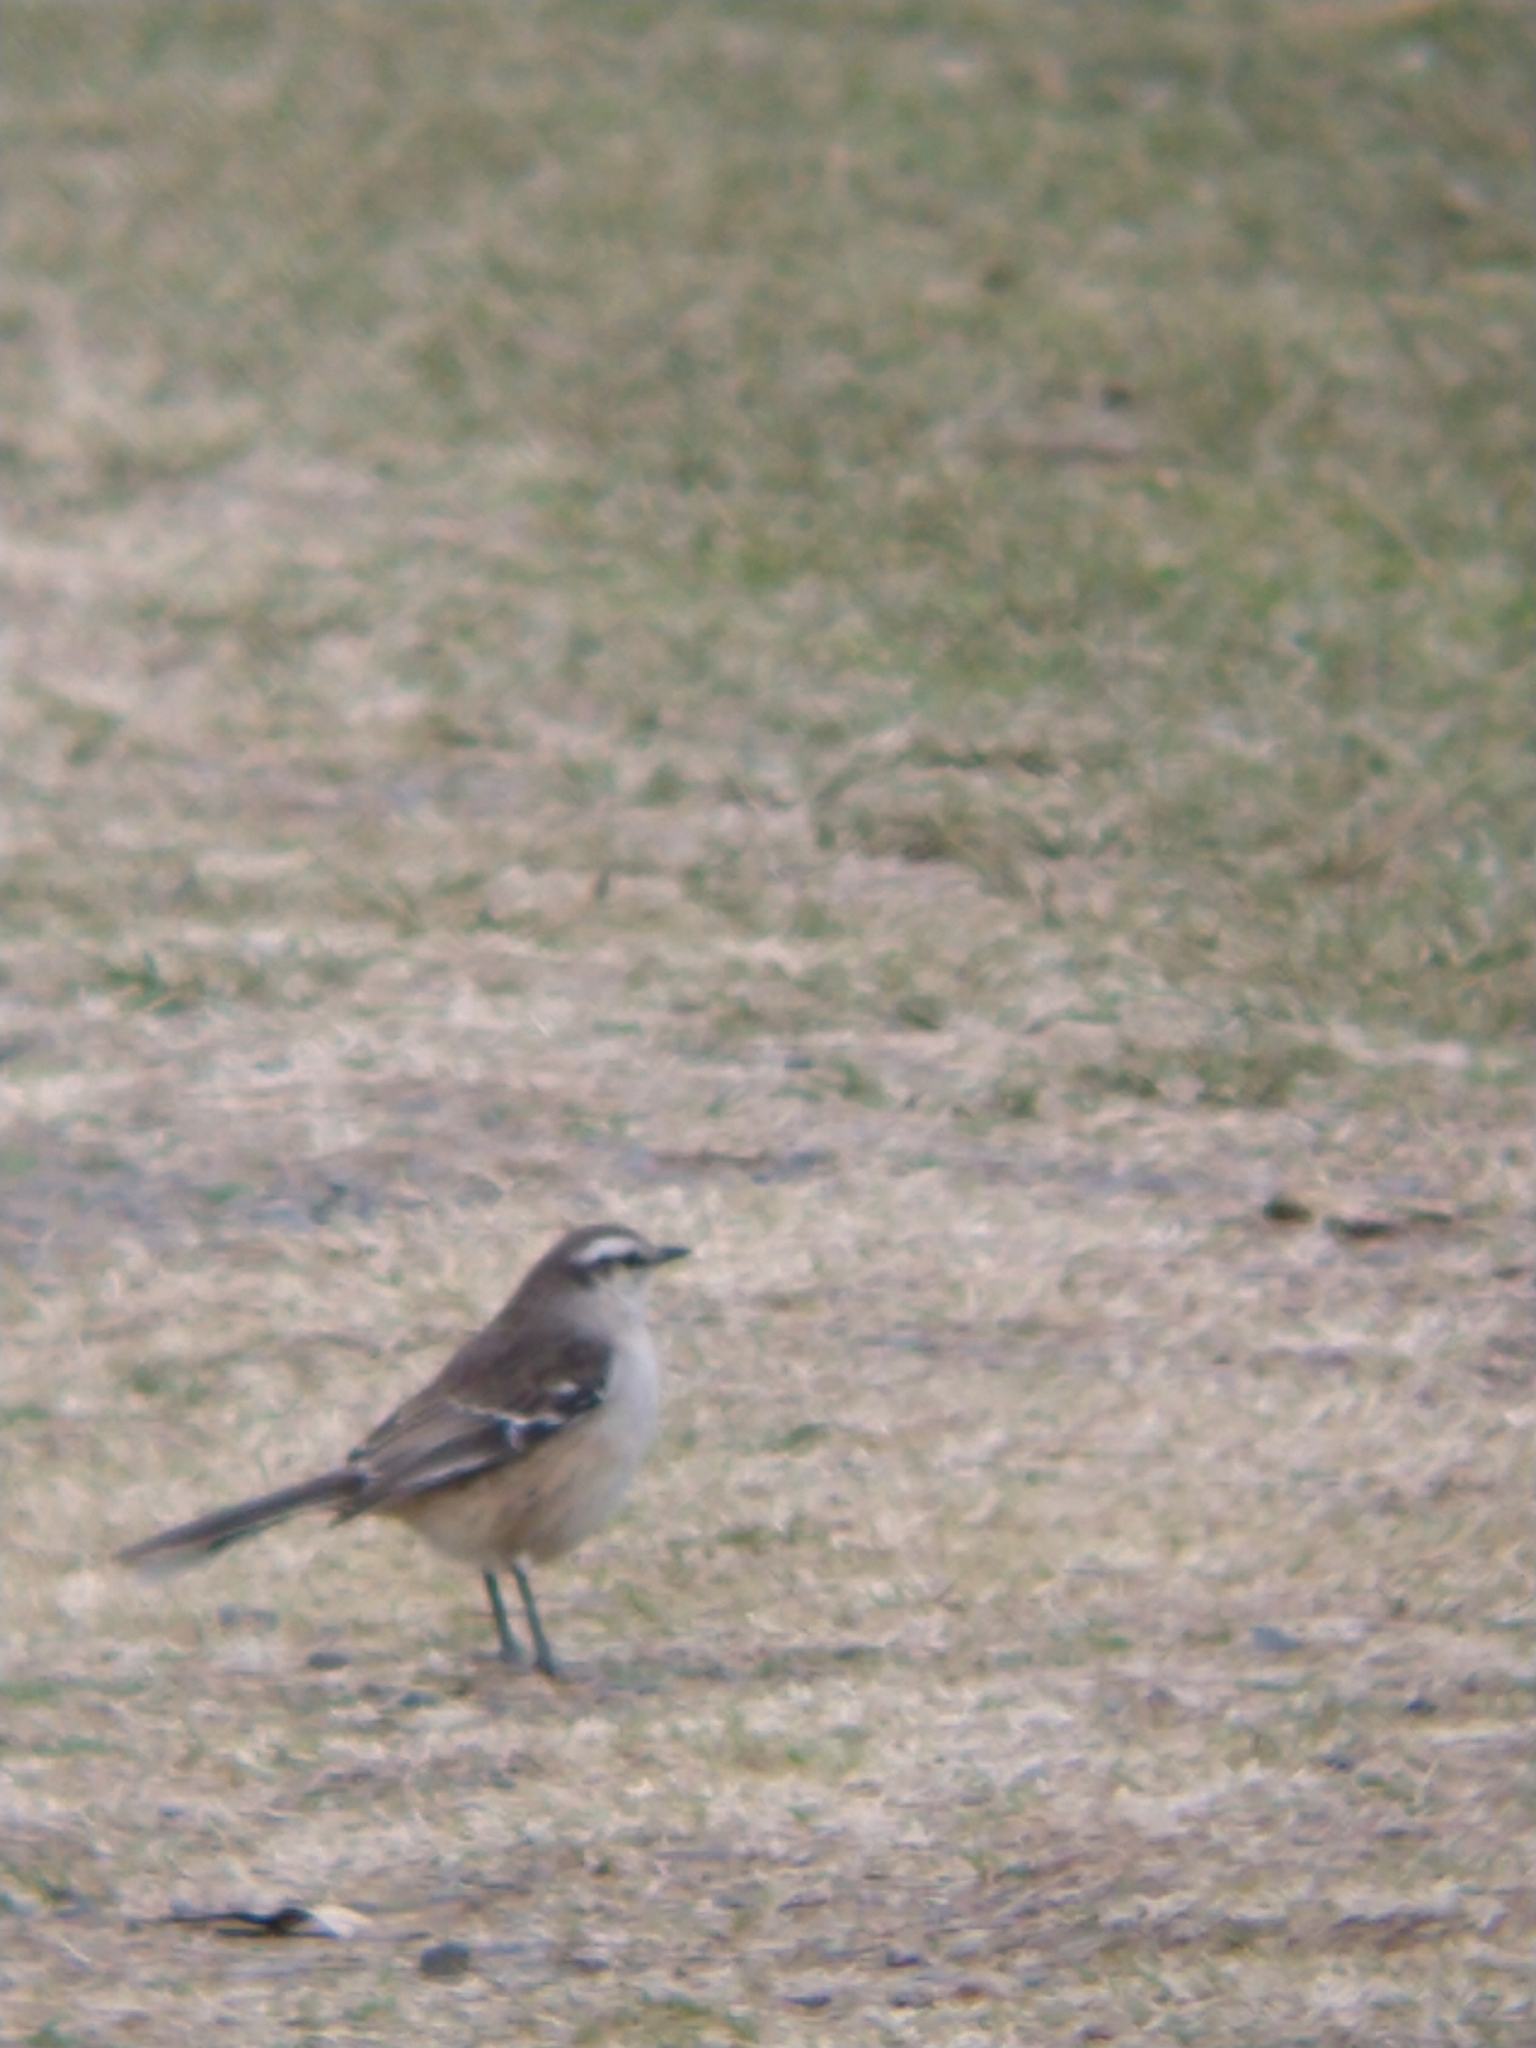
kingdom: Animalia
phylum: Chordata
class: Aves
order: Passeriformes
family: Mimidae
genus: Mimus
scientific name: Mimus saturninus
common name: Chalk-browed mockingbird
